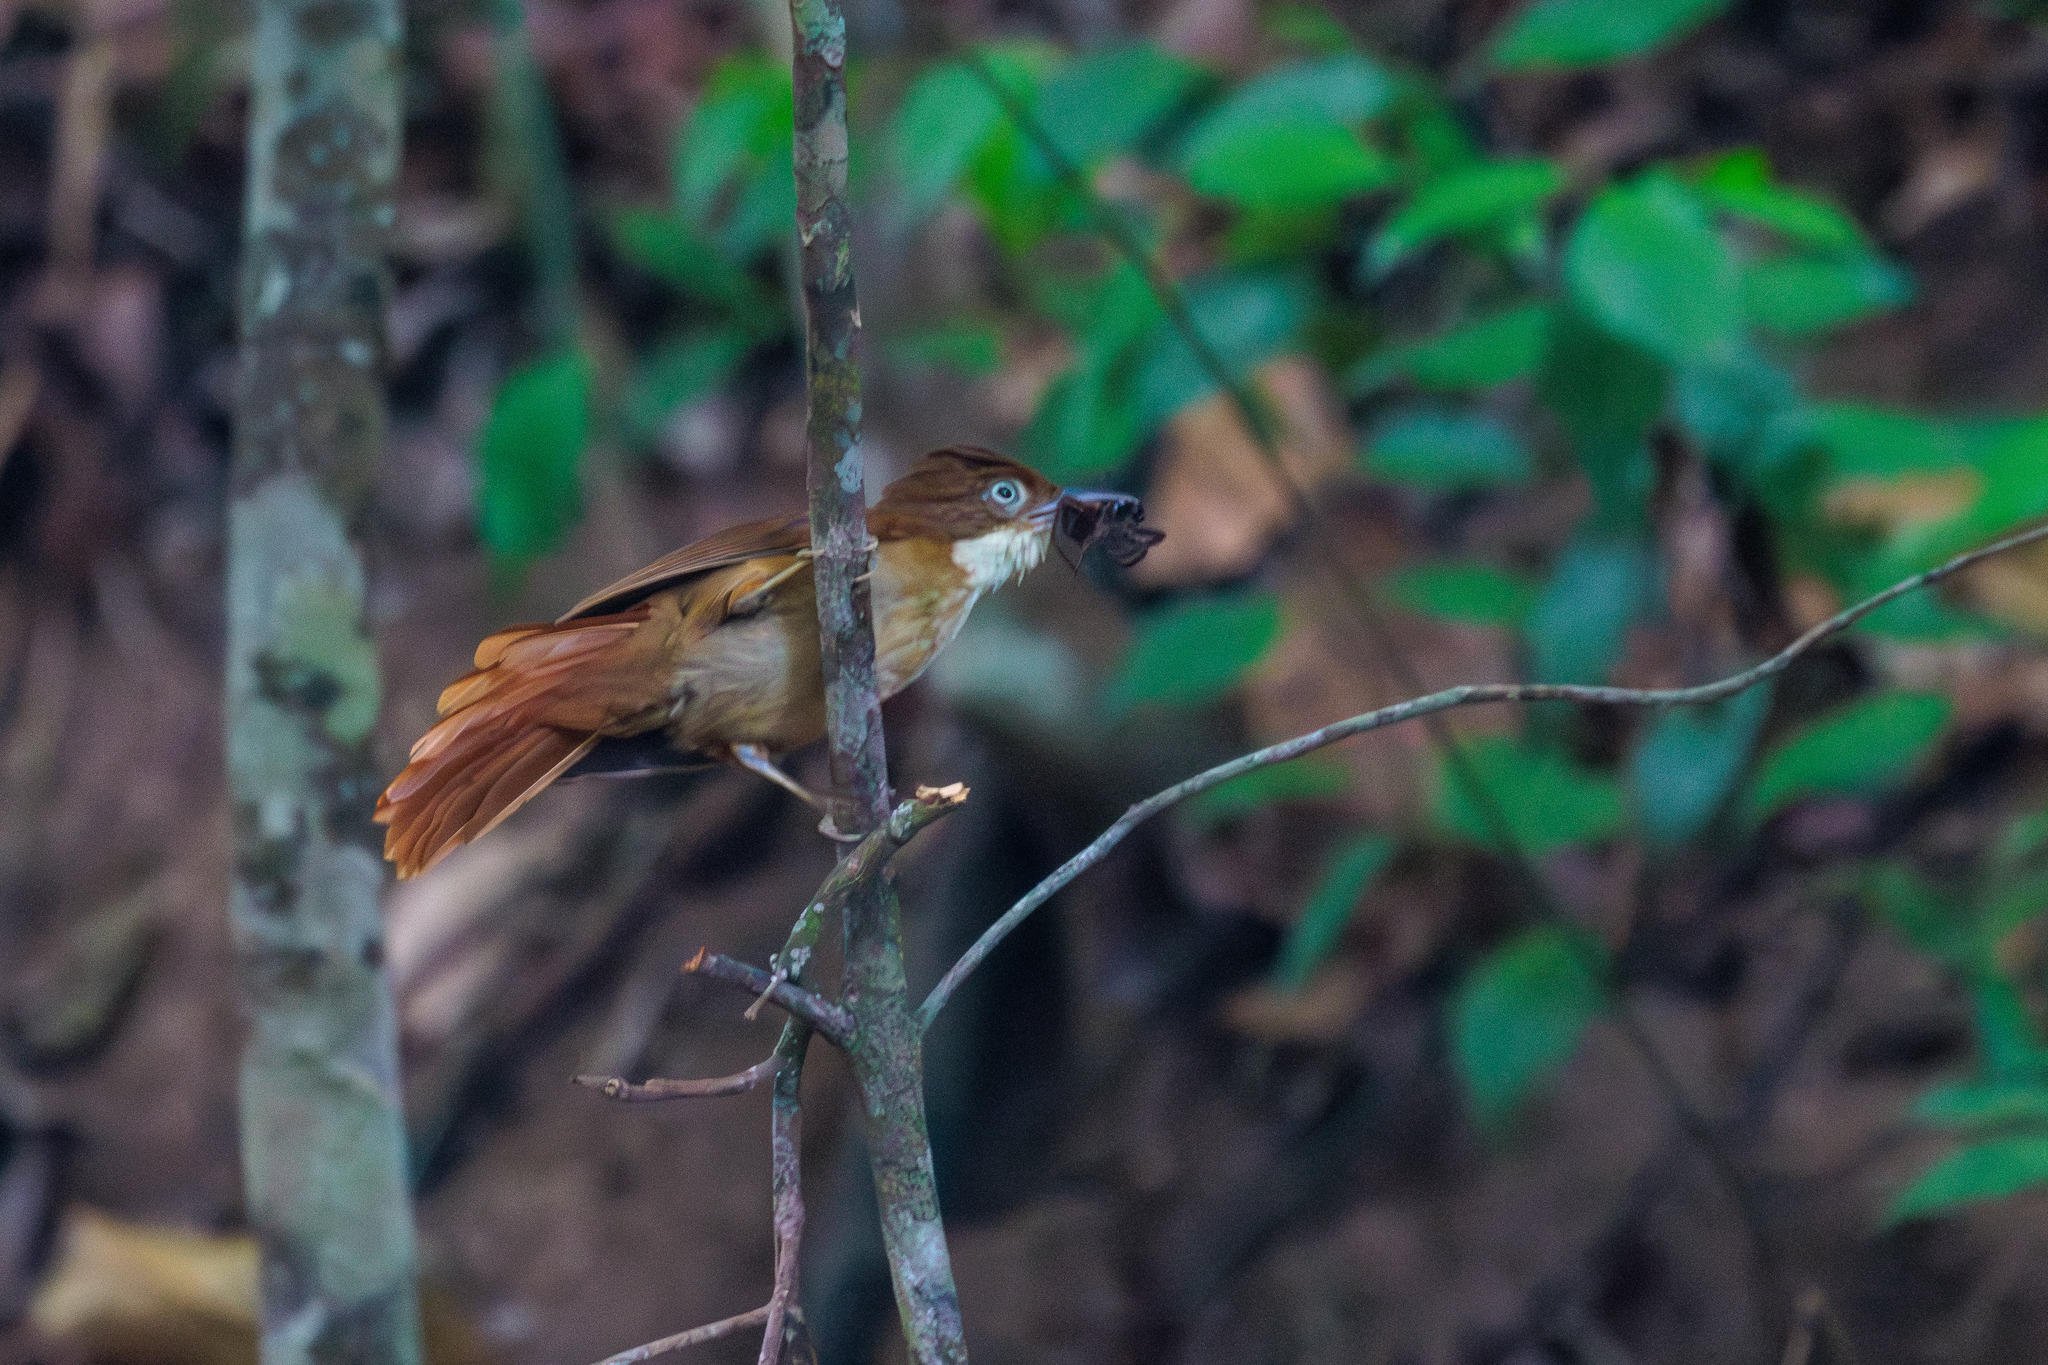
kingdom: Animalia
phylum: Chordata
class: Aves
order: Passeriformes
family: Furnariidae
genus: Automolus
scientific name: Automolus lammi
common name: Pernambuco foliage-gleaner
